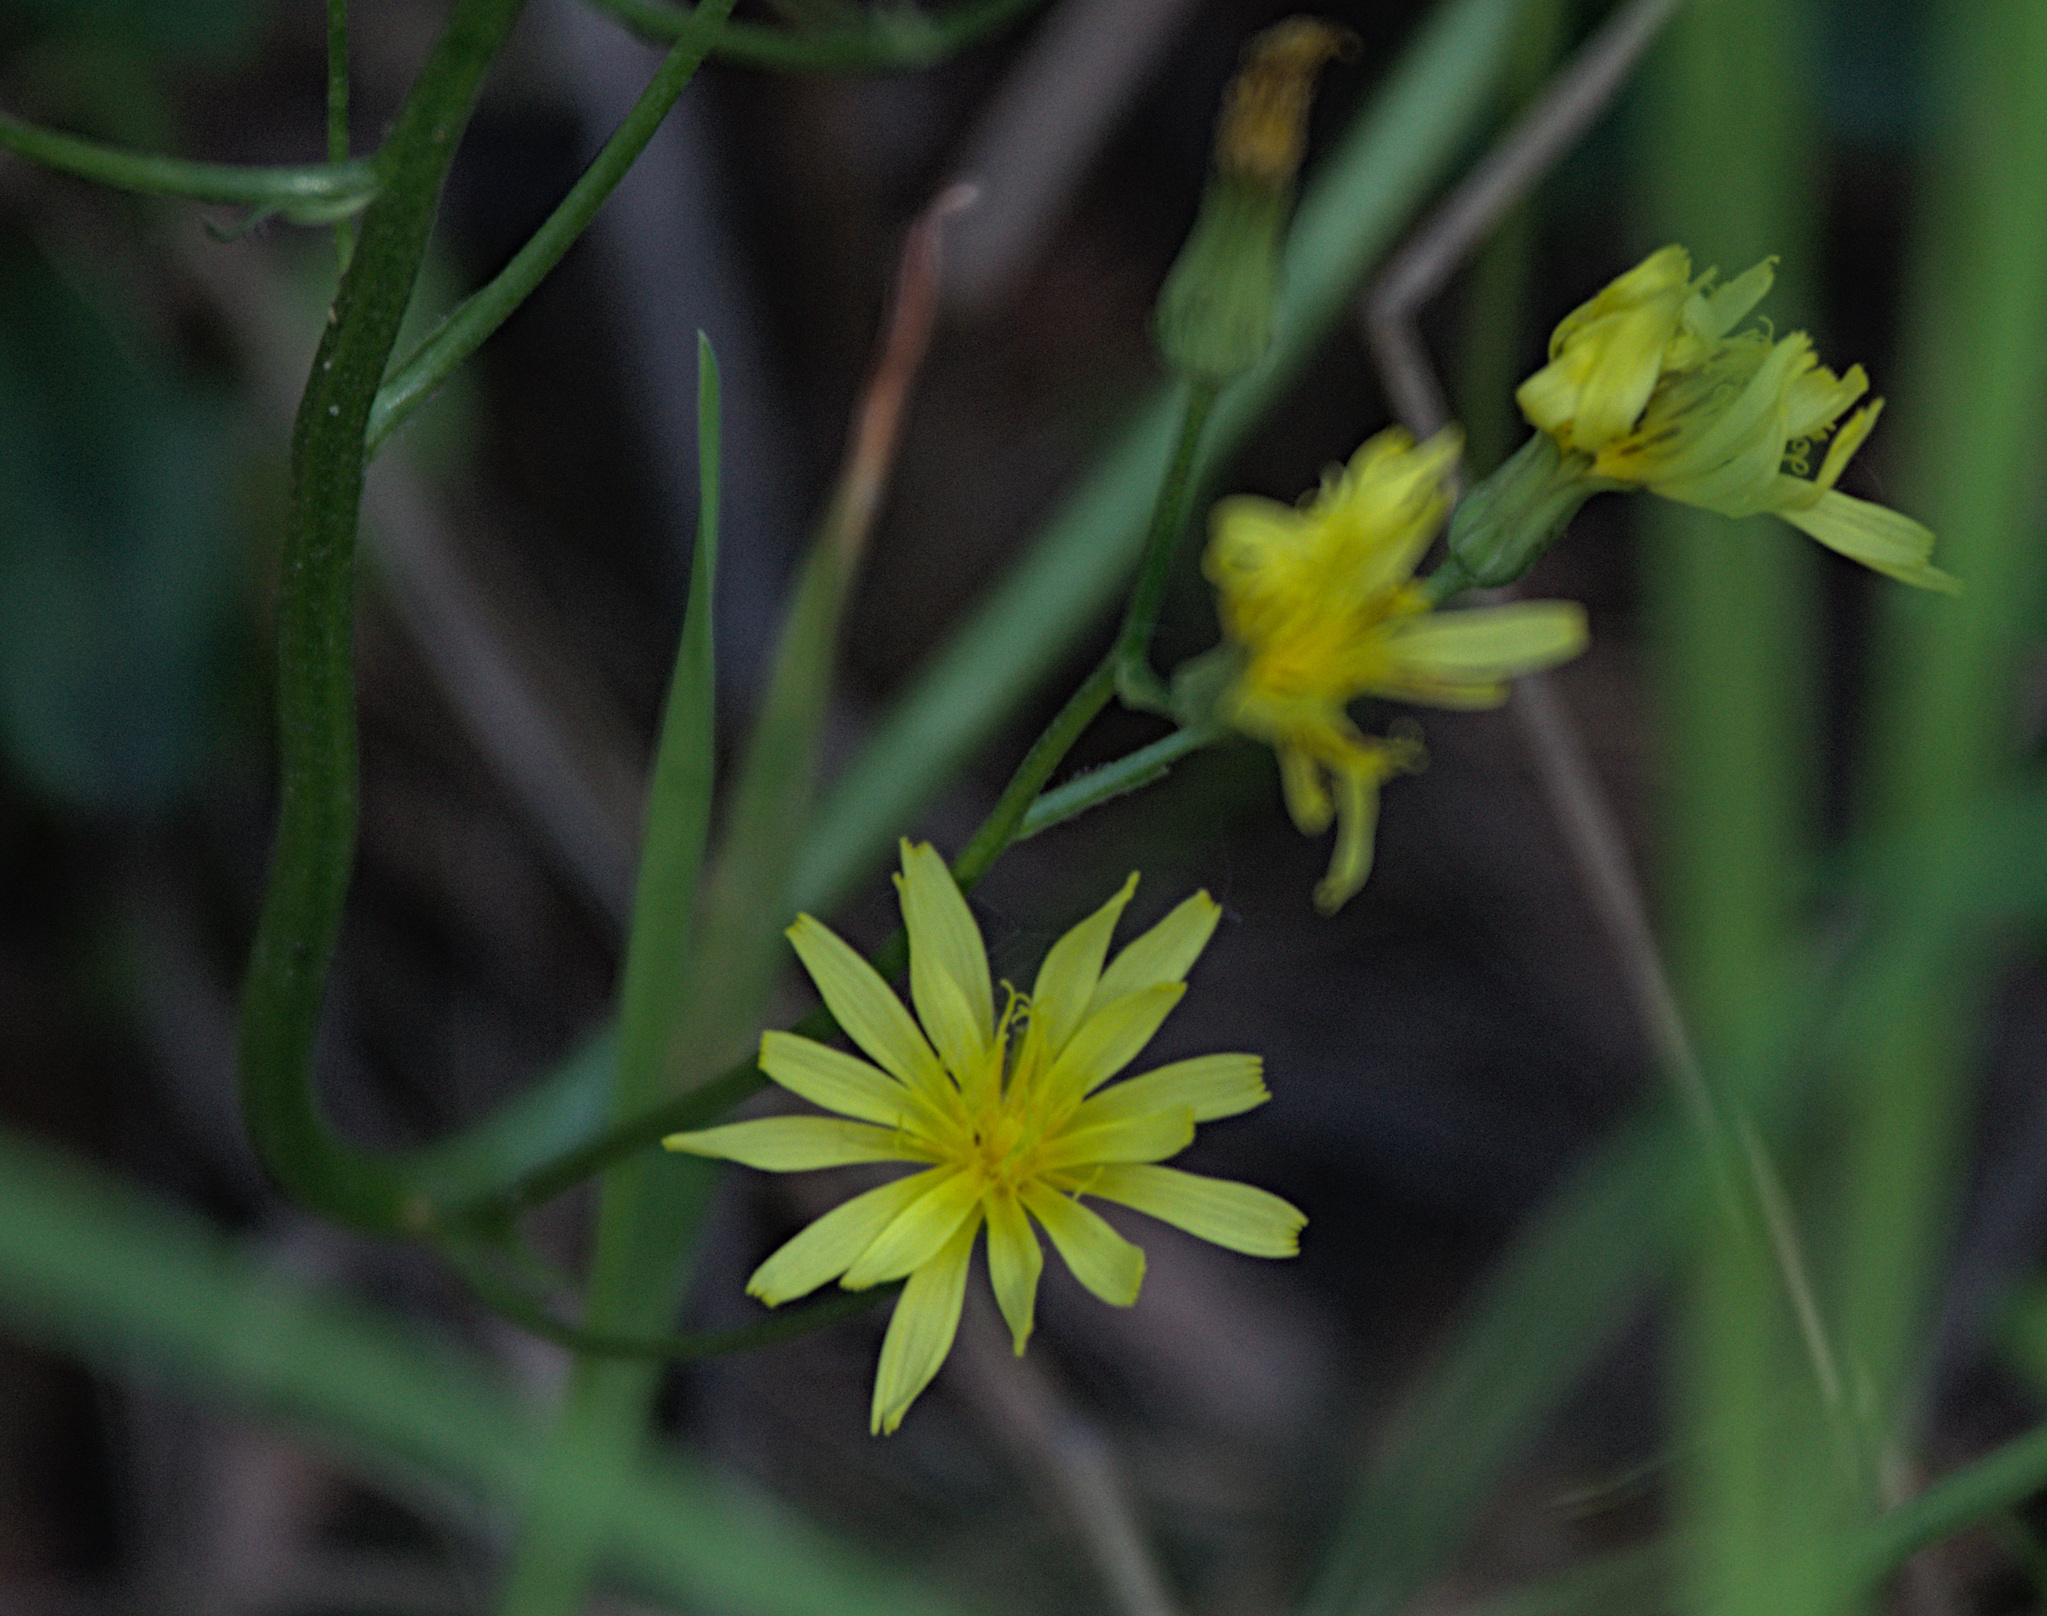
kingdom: Plantae
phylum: Tracheophyta
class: Magnoliopsida
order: Asterales
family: Asteraceae
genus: Crepis
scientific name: Crepis praemorsa
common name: Leafless hawk's-beard
